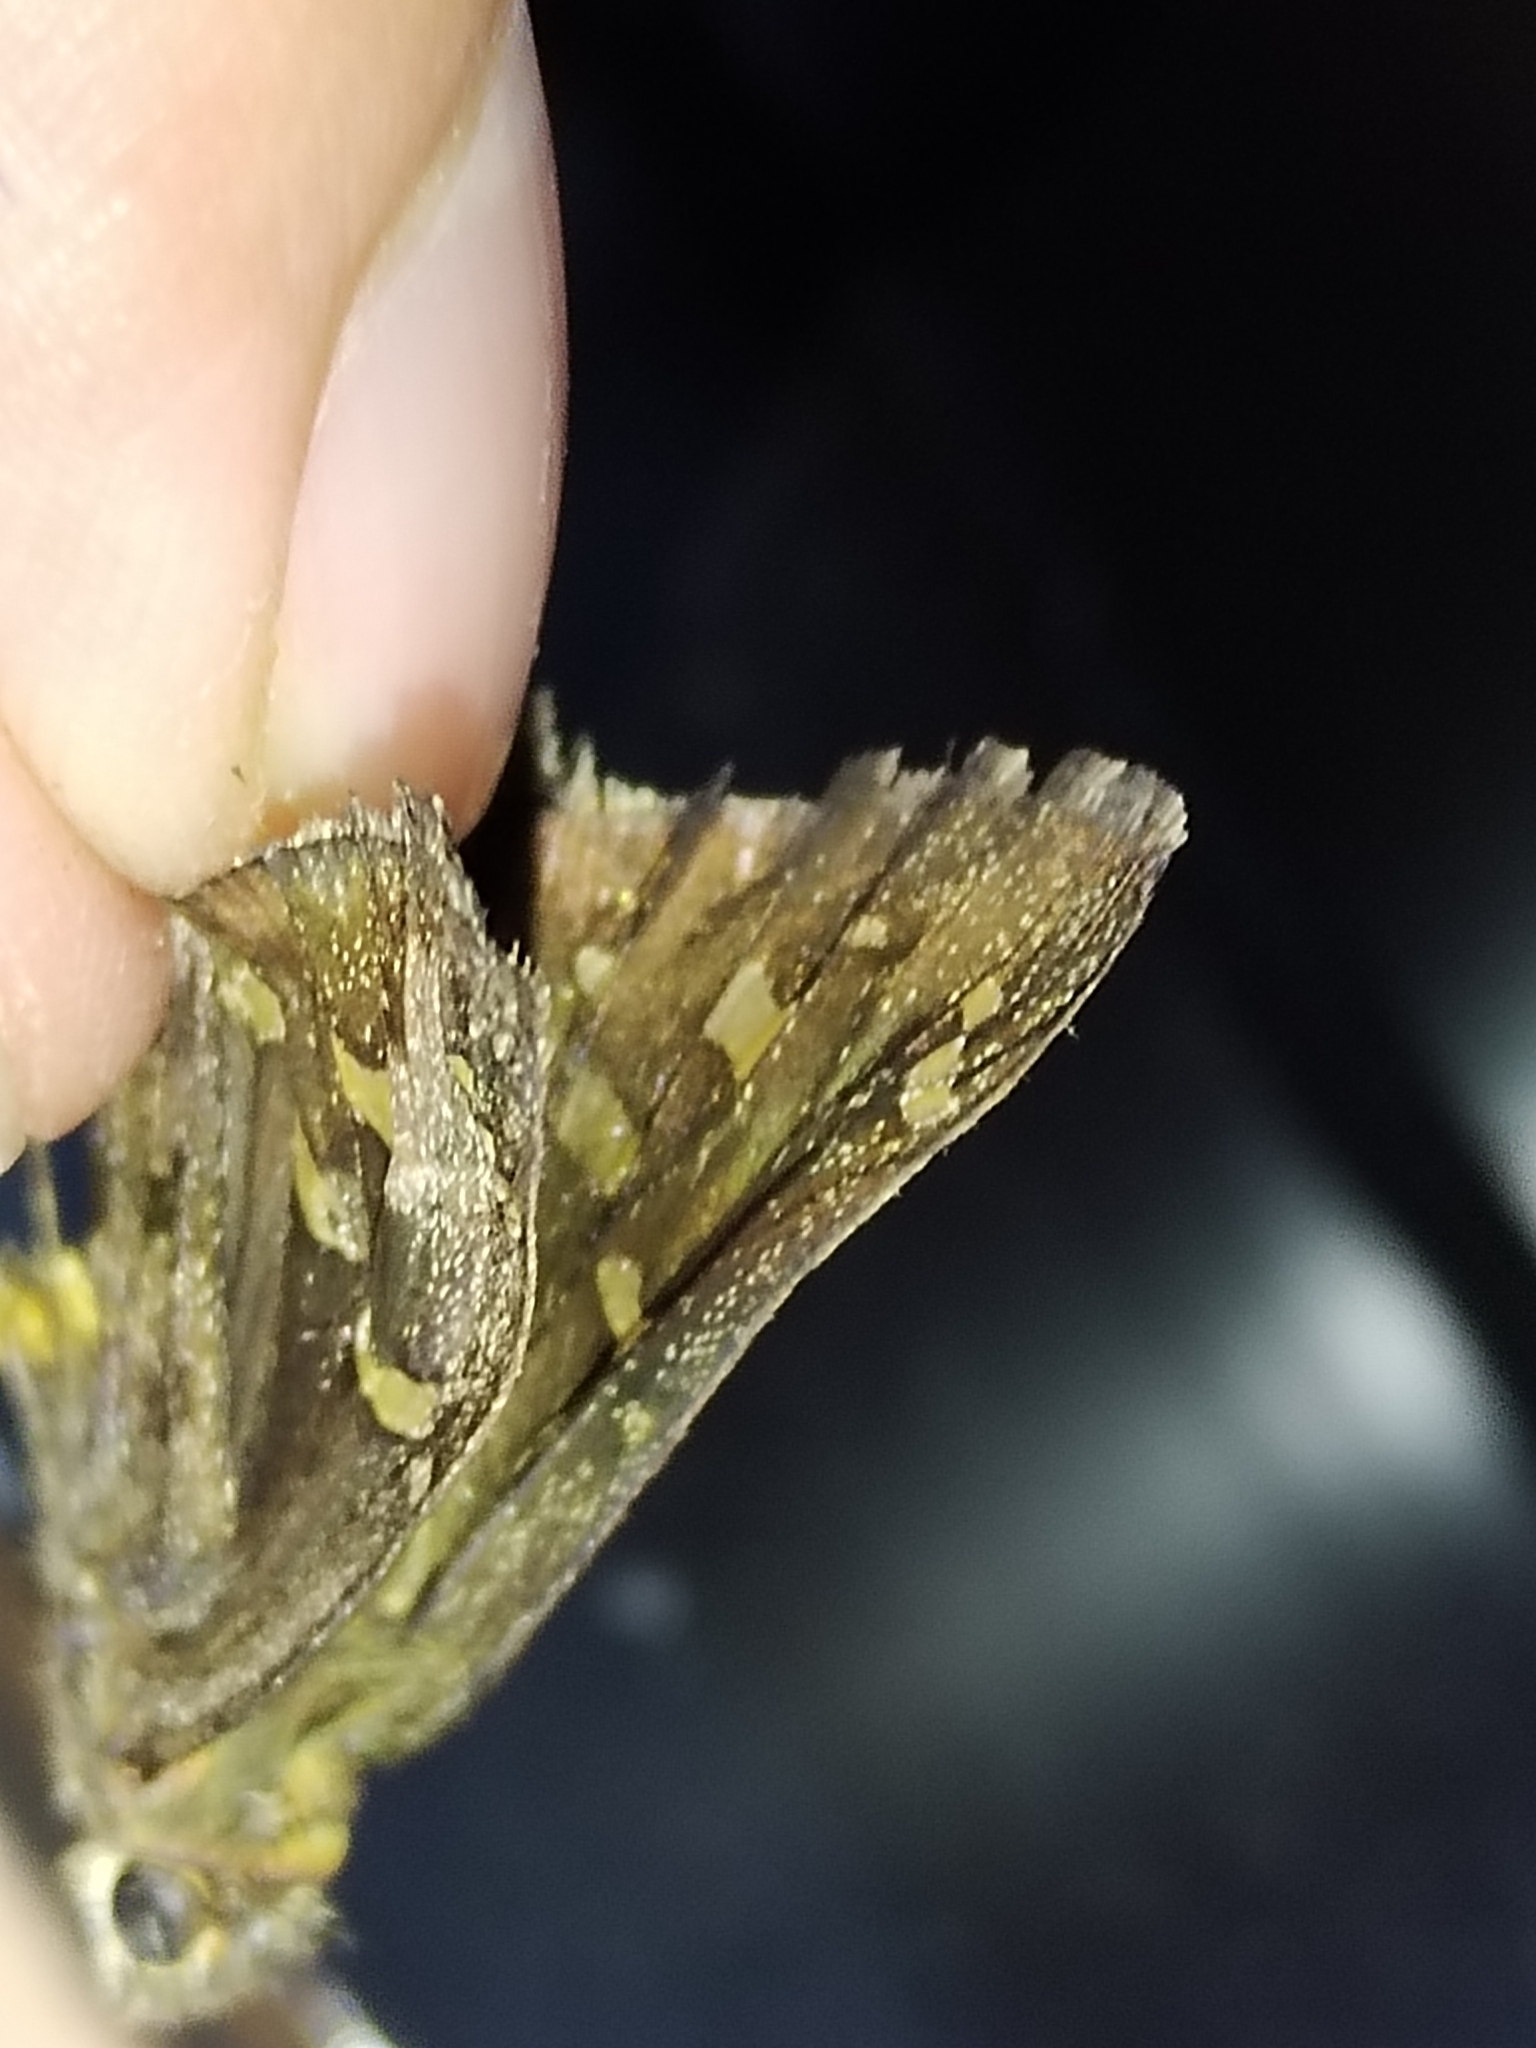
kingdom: Animalia
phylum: Arthropoda
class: Insecta
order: Lepidoptera
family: Hesperiidae
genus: Thorybes
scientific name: Thorybes
